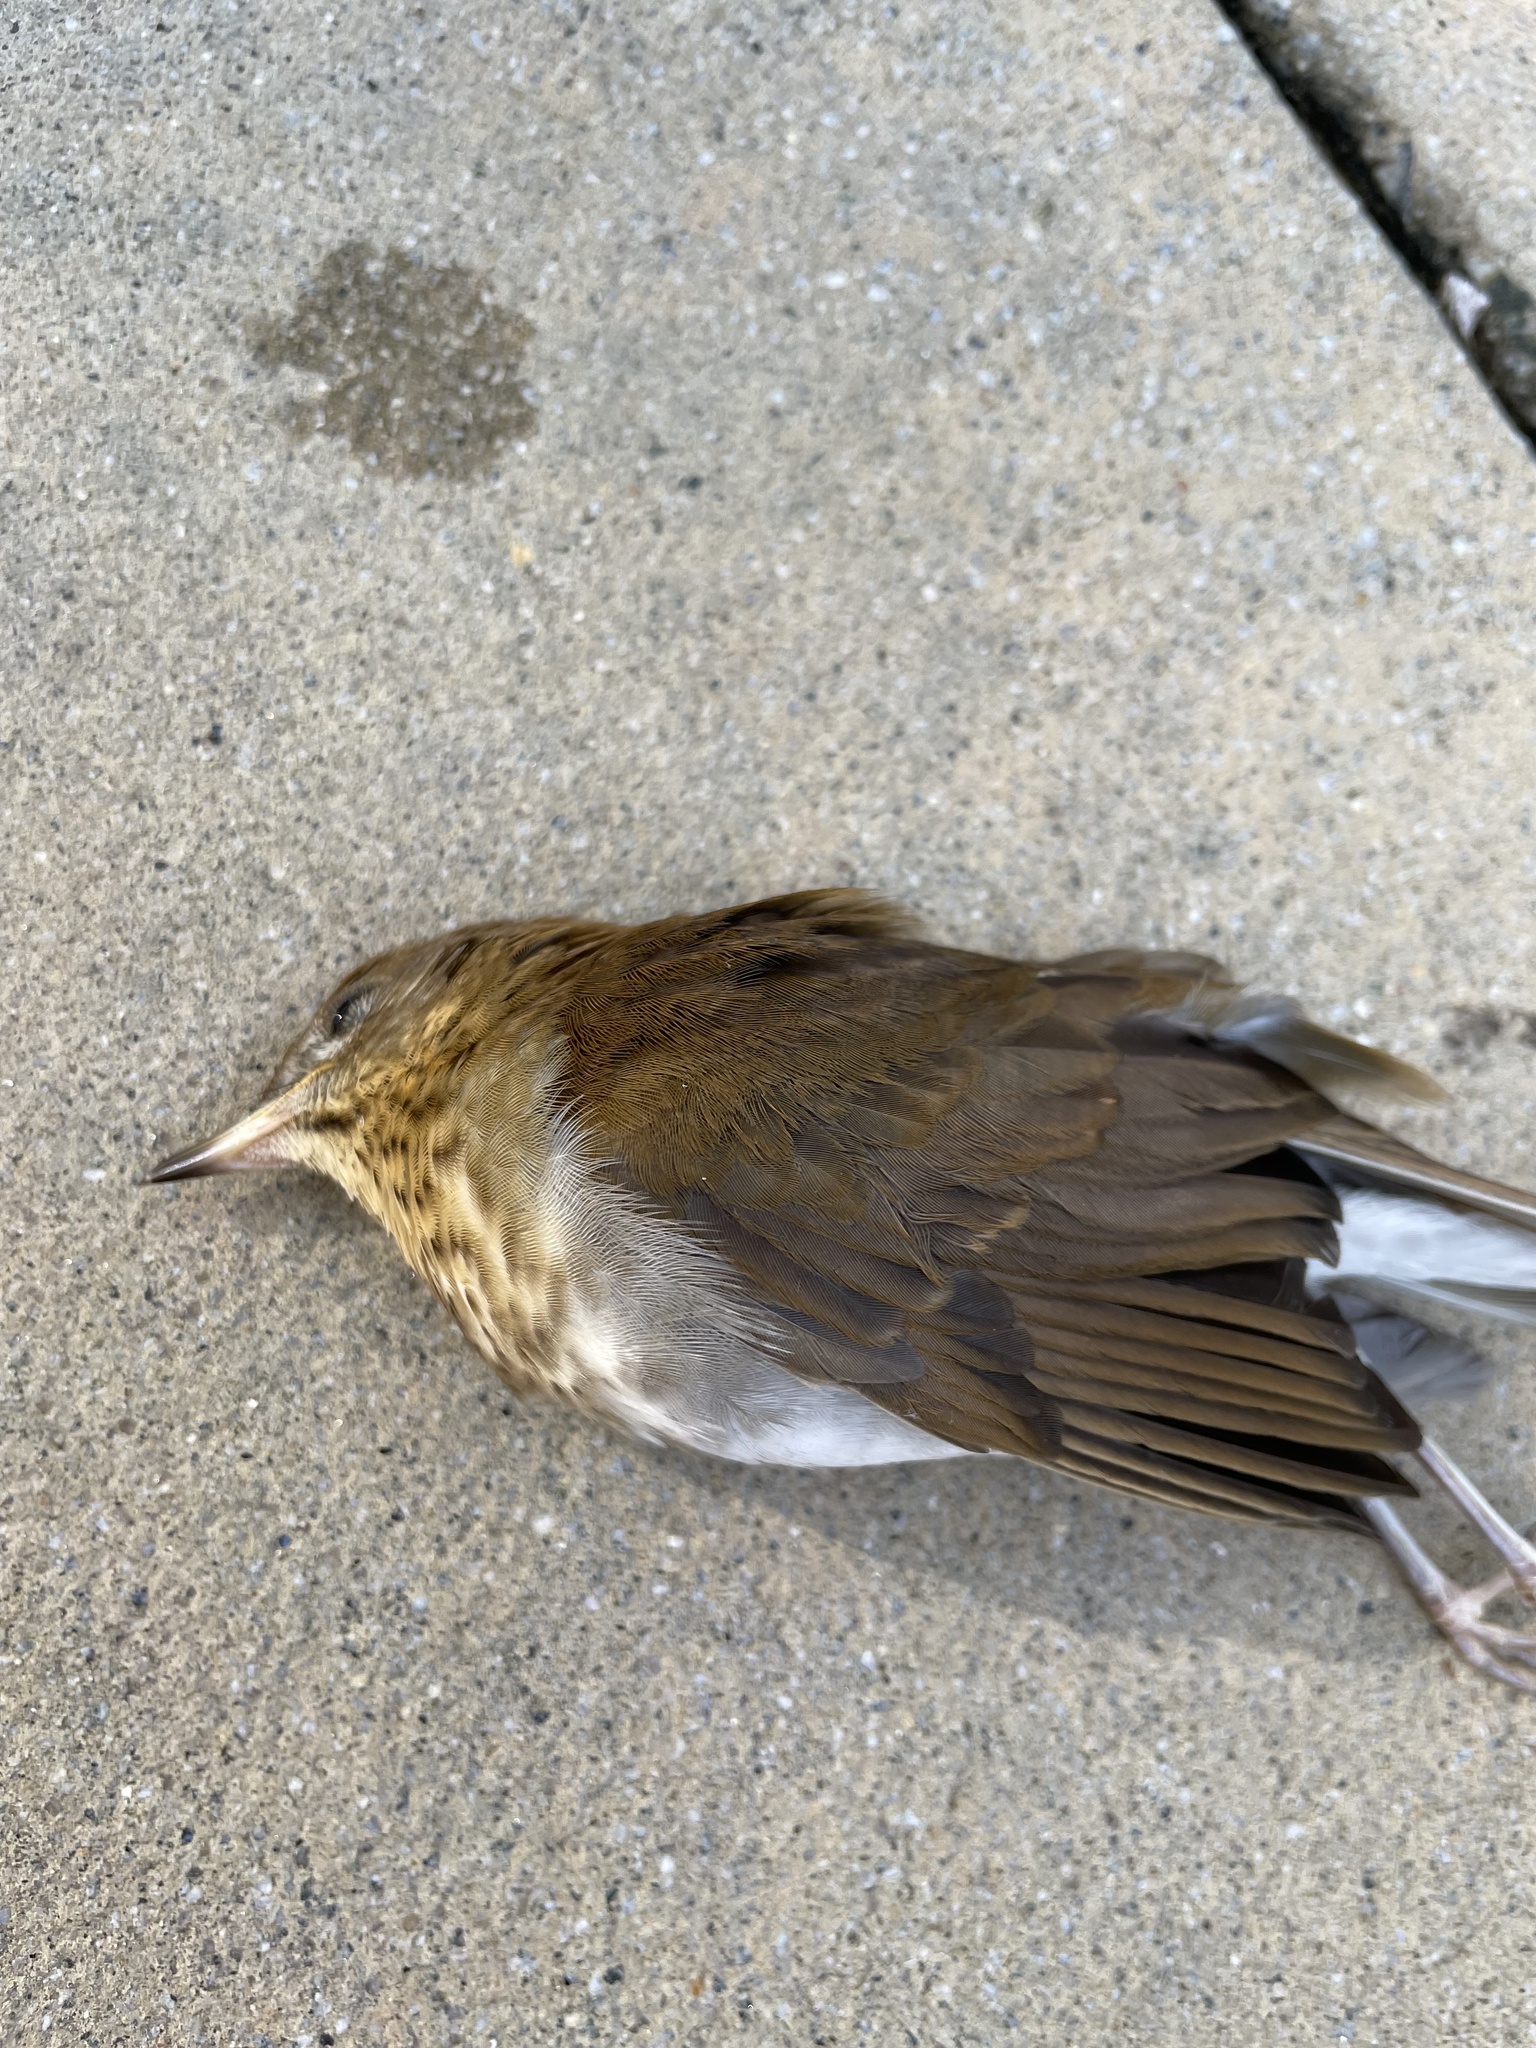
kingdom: Animalia
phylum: Chordata
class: Aves
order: Passeriformes
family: Turdidae
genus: Catharus
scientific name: Catharus ustulatus
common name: Swainson's thrush
